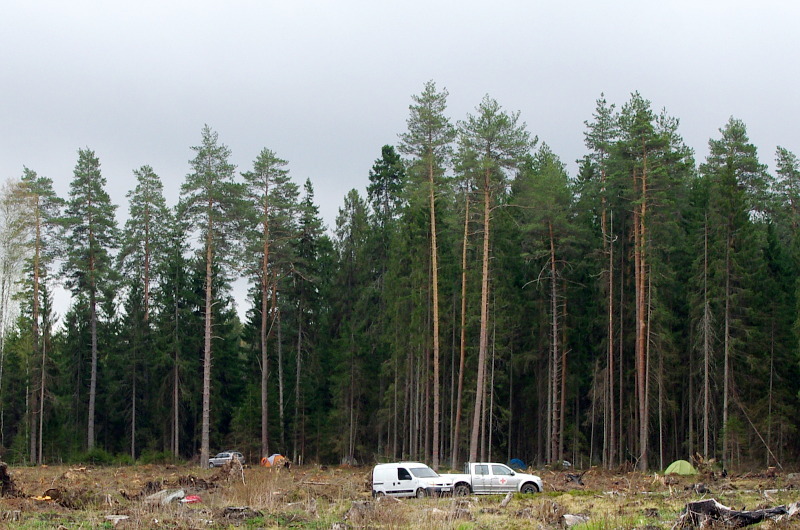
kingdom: Plantae
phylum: Tracheophyta
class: Pinopsida
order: Pinales
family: Pinaceae
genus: Pinus
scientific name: Pinus sylvestris
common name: Scots pine
